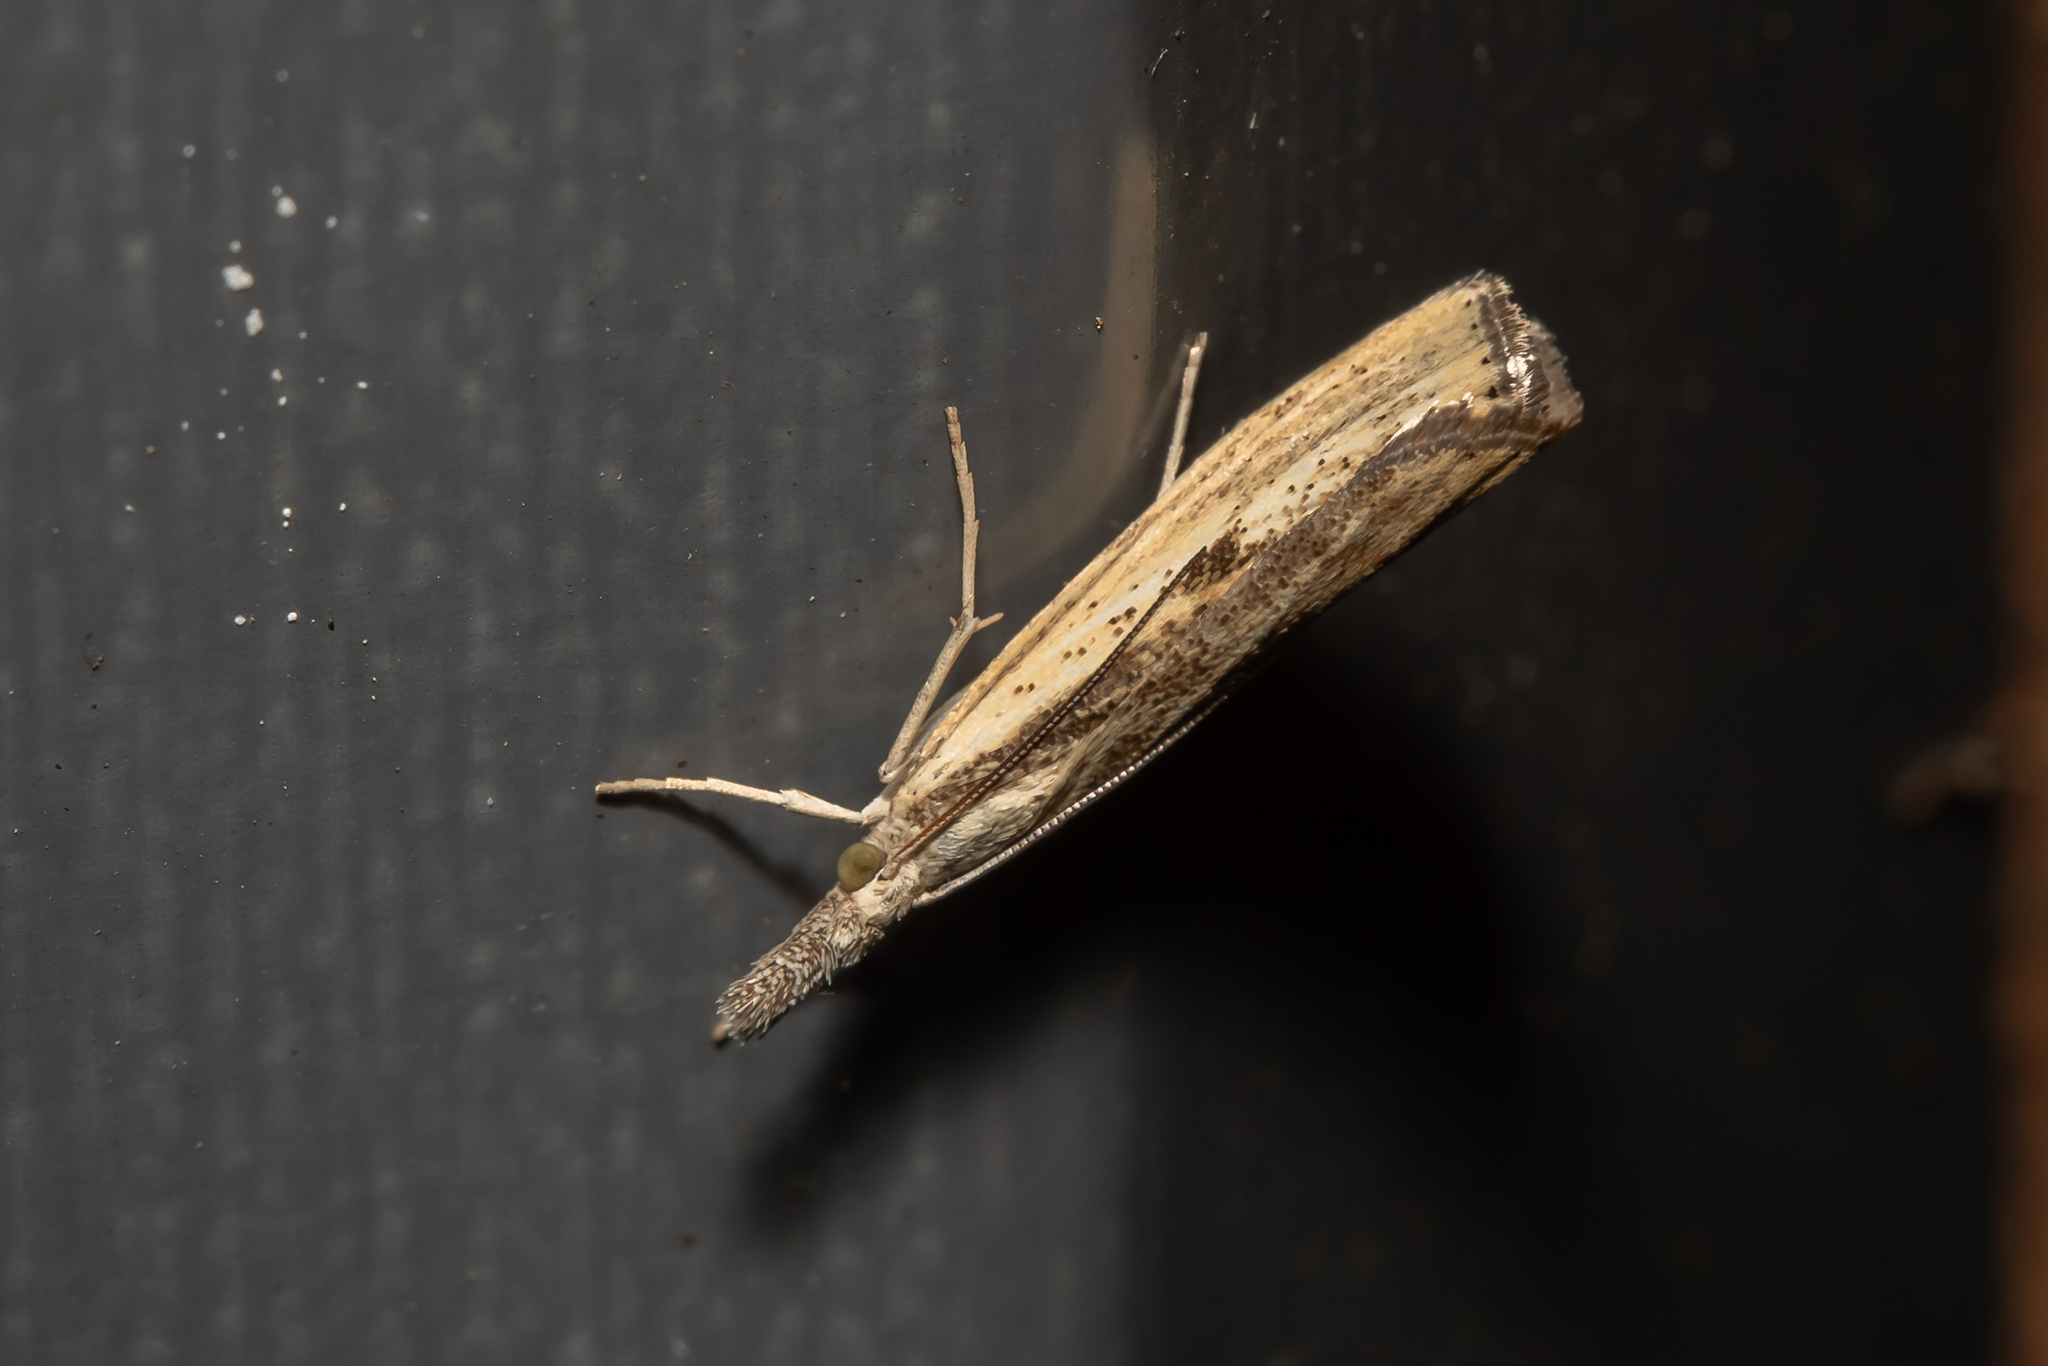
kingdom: Animalia
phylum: Arthropoda
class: Insecta
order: Lepidoptera
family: Crambidae
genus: Agriphila
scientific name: Agriphila inquinatella
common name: Barred grass-veneer
